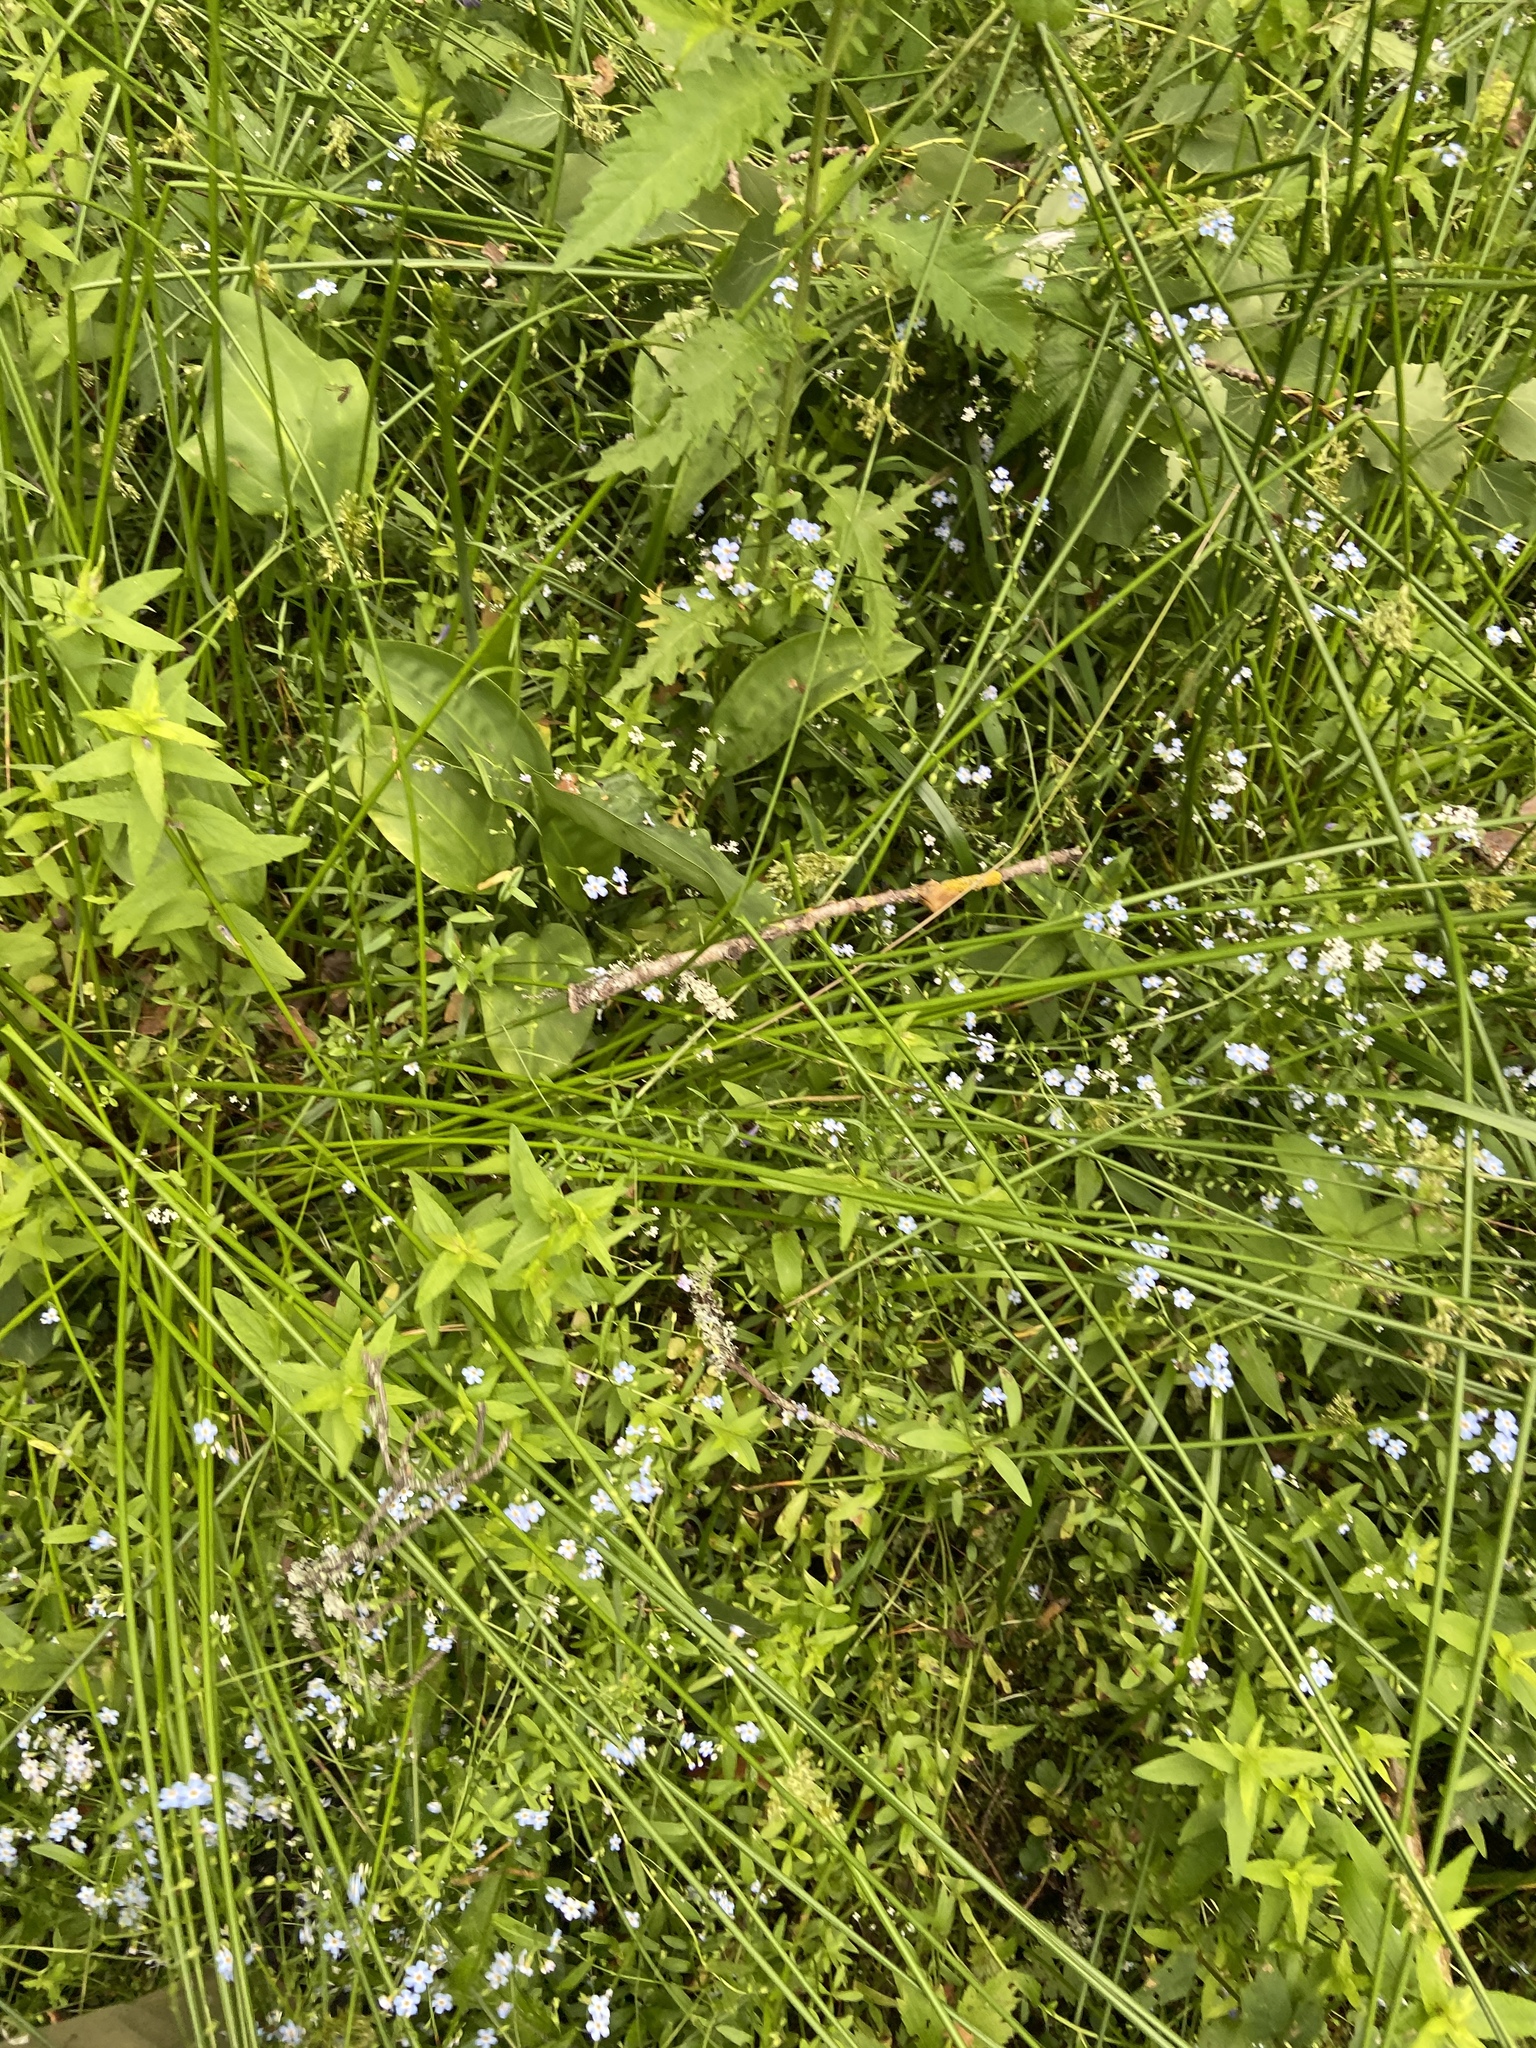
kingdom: Plantae
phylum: Tracheophyta
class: Magnoliopsida
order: Boraginales
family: Boraginaceae
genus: Myosotis
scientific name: Myosotis scorpioides
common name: Water forget-me-not
